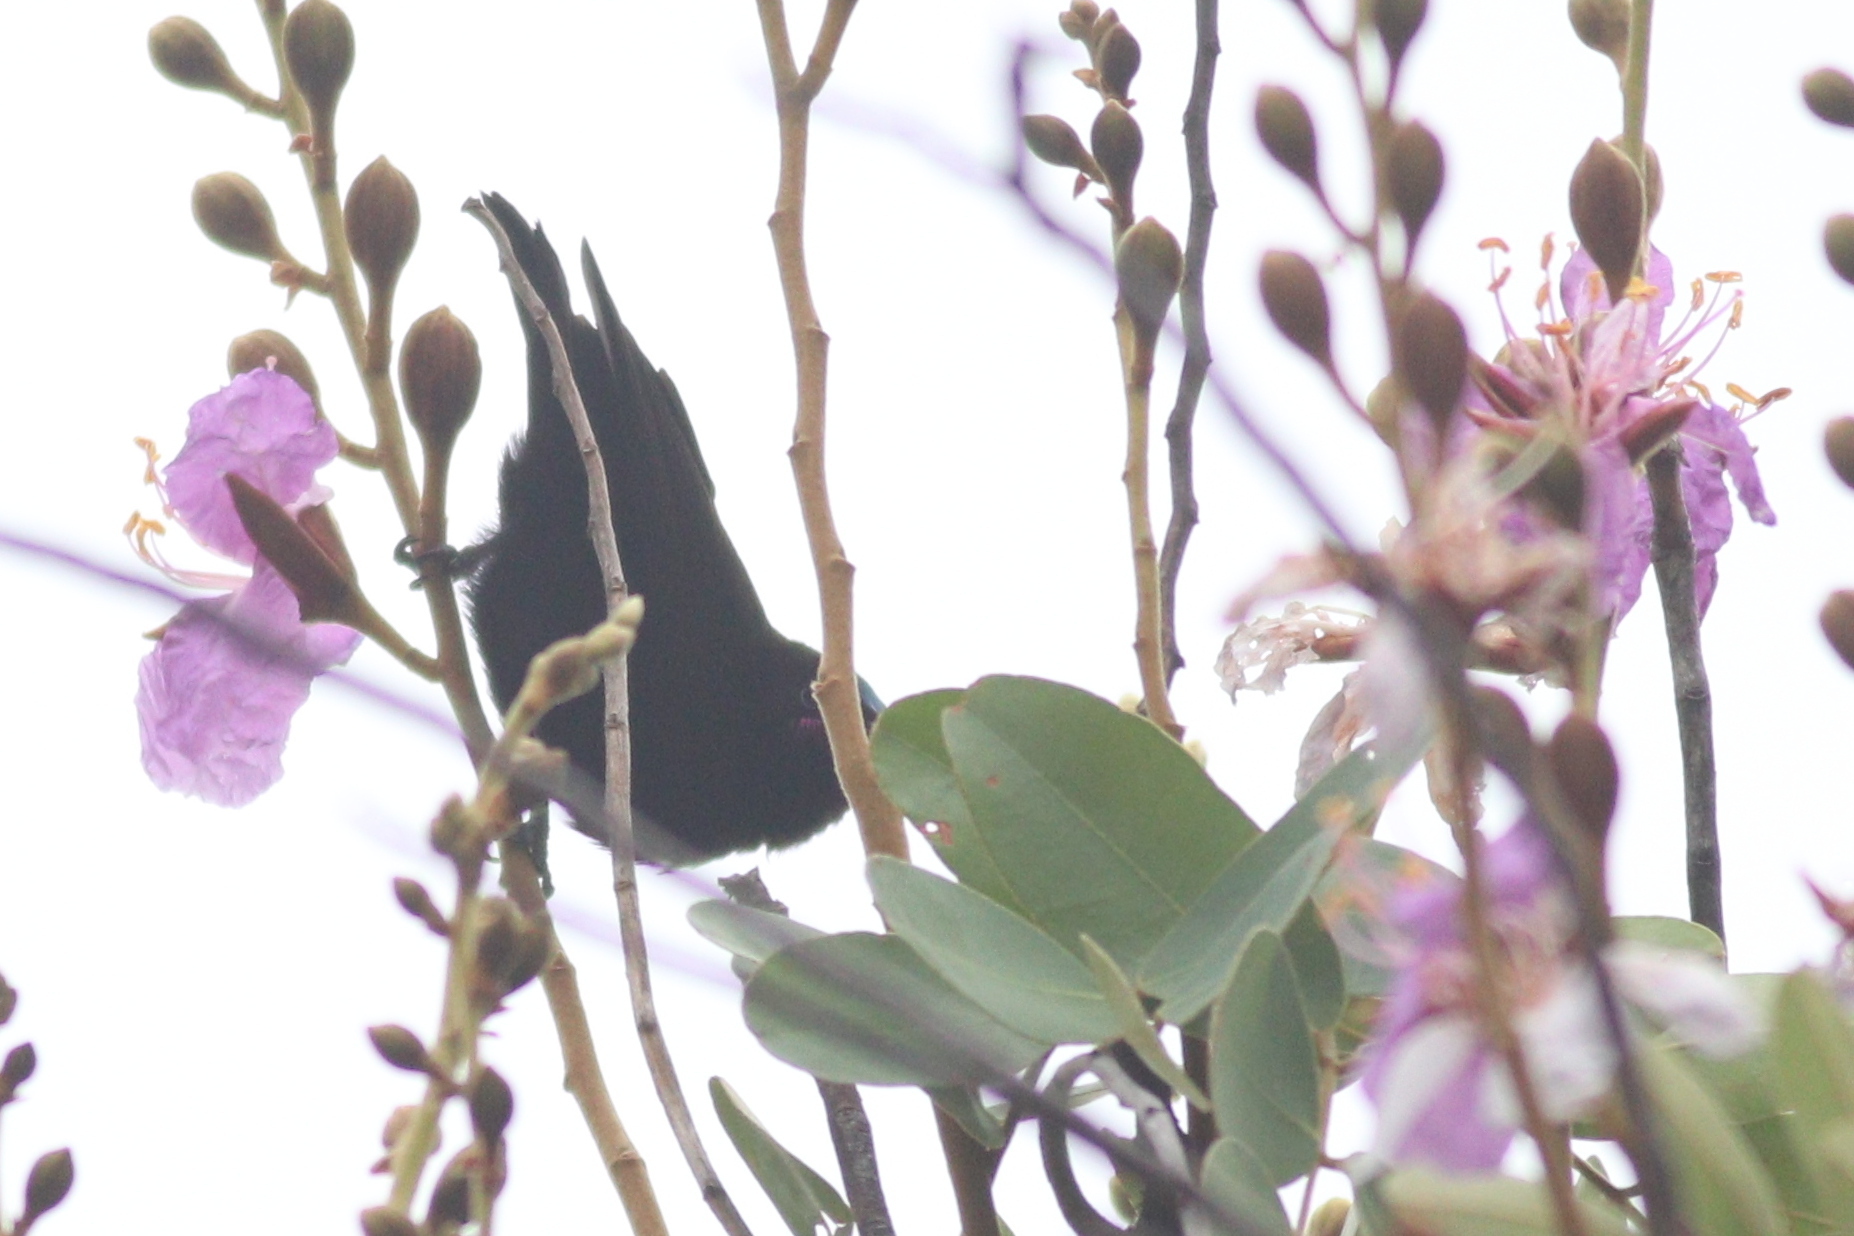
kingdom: Animalia
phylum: Chordata
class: Aves
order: Passeriformes
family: Nectariniidae
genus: Chalcomitra
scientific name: Chalcomitra amethystina
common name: Amethyst sunbird
